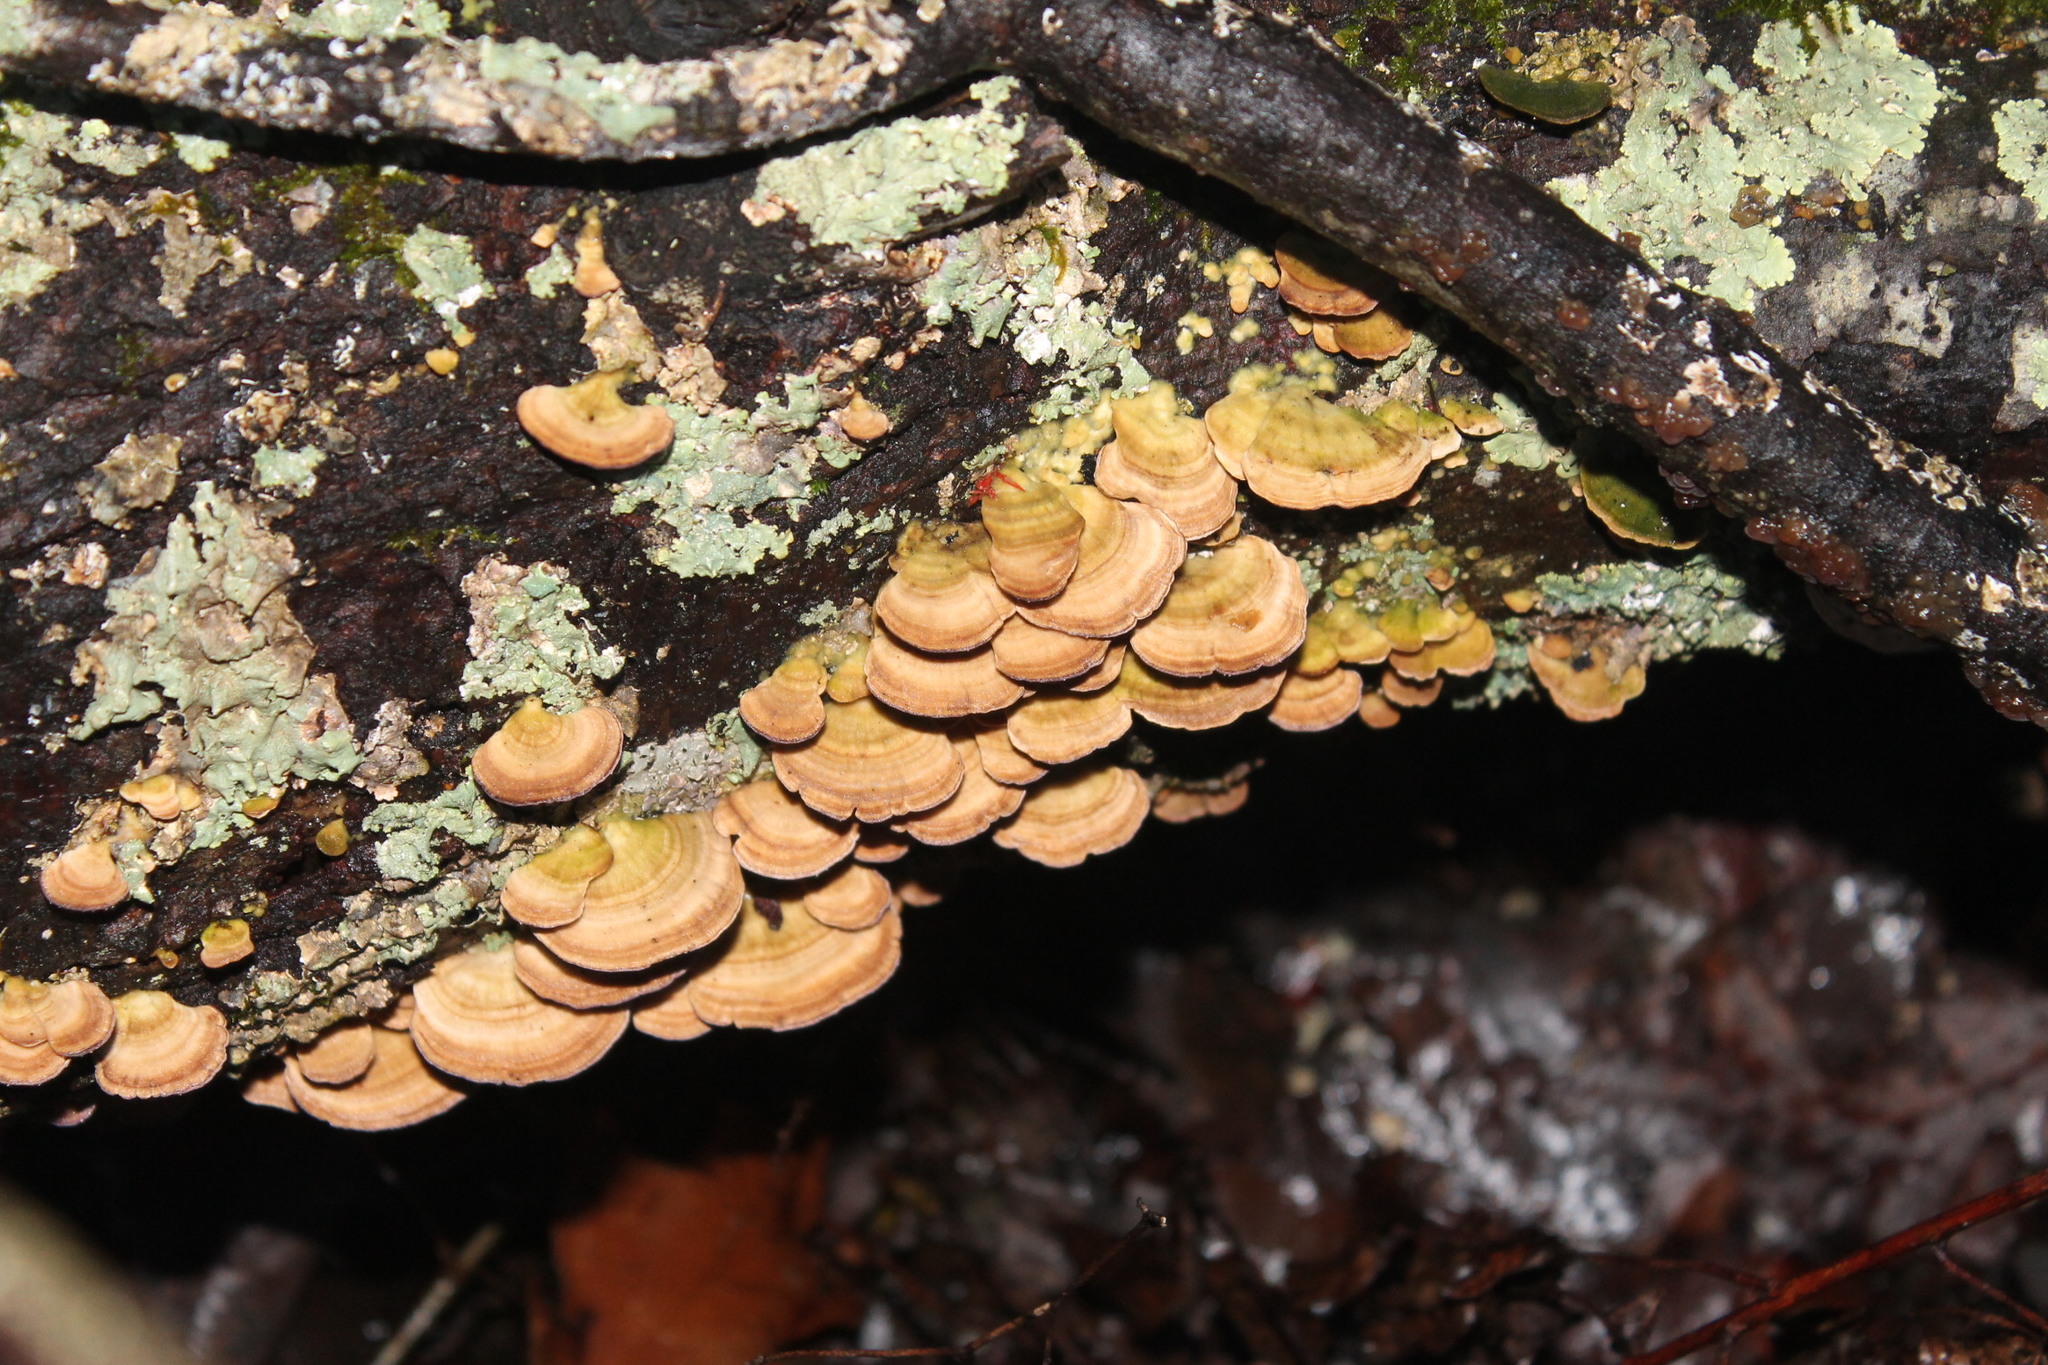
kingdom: Fungi
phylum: Basidiomycota
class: Agaricomycetes
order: Hymenochaetales
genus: Trichaptum
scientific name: Trichaptum biforme
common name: Violet-toothed polypore
